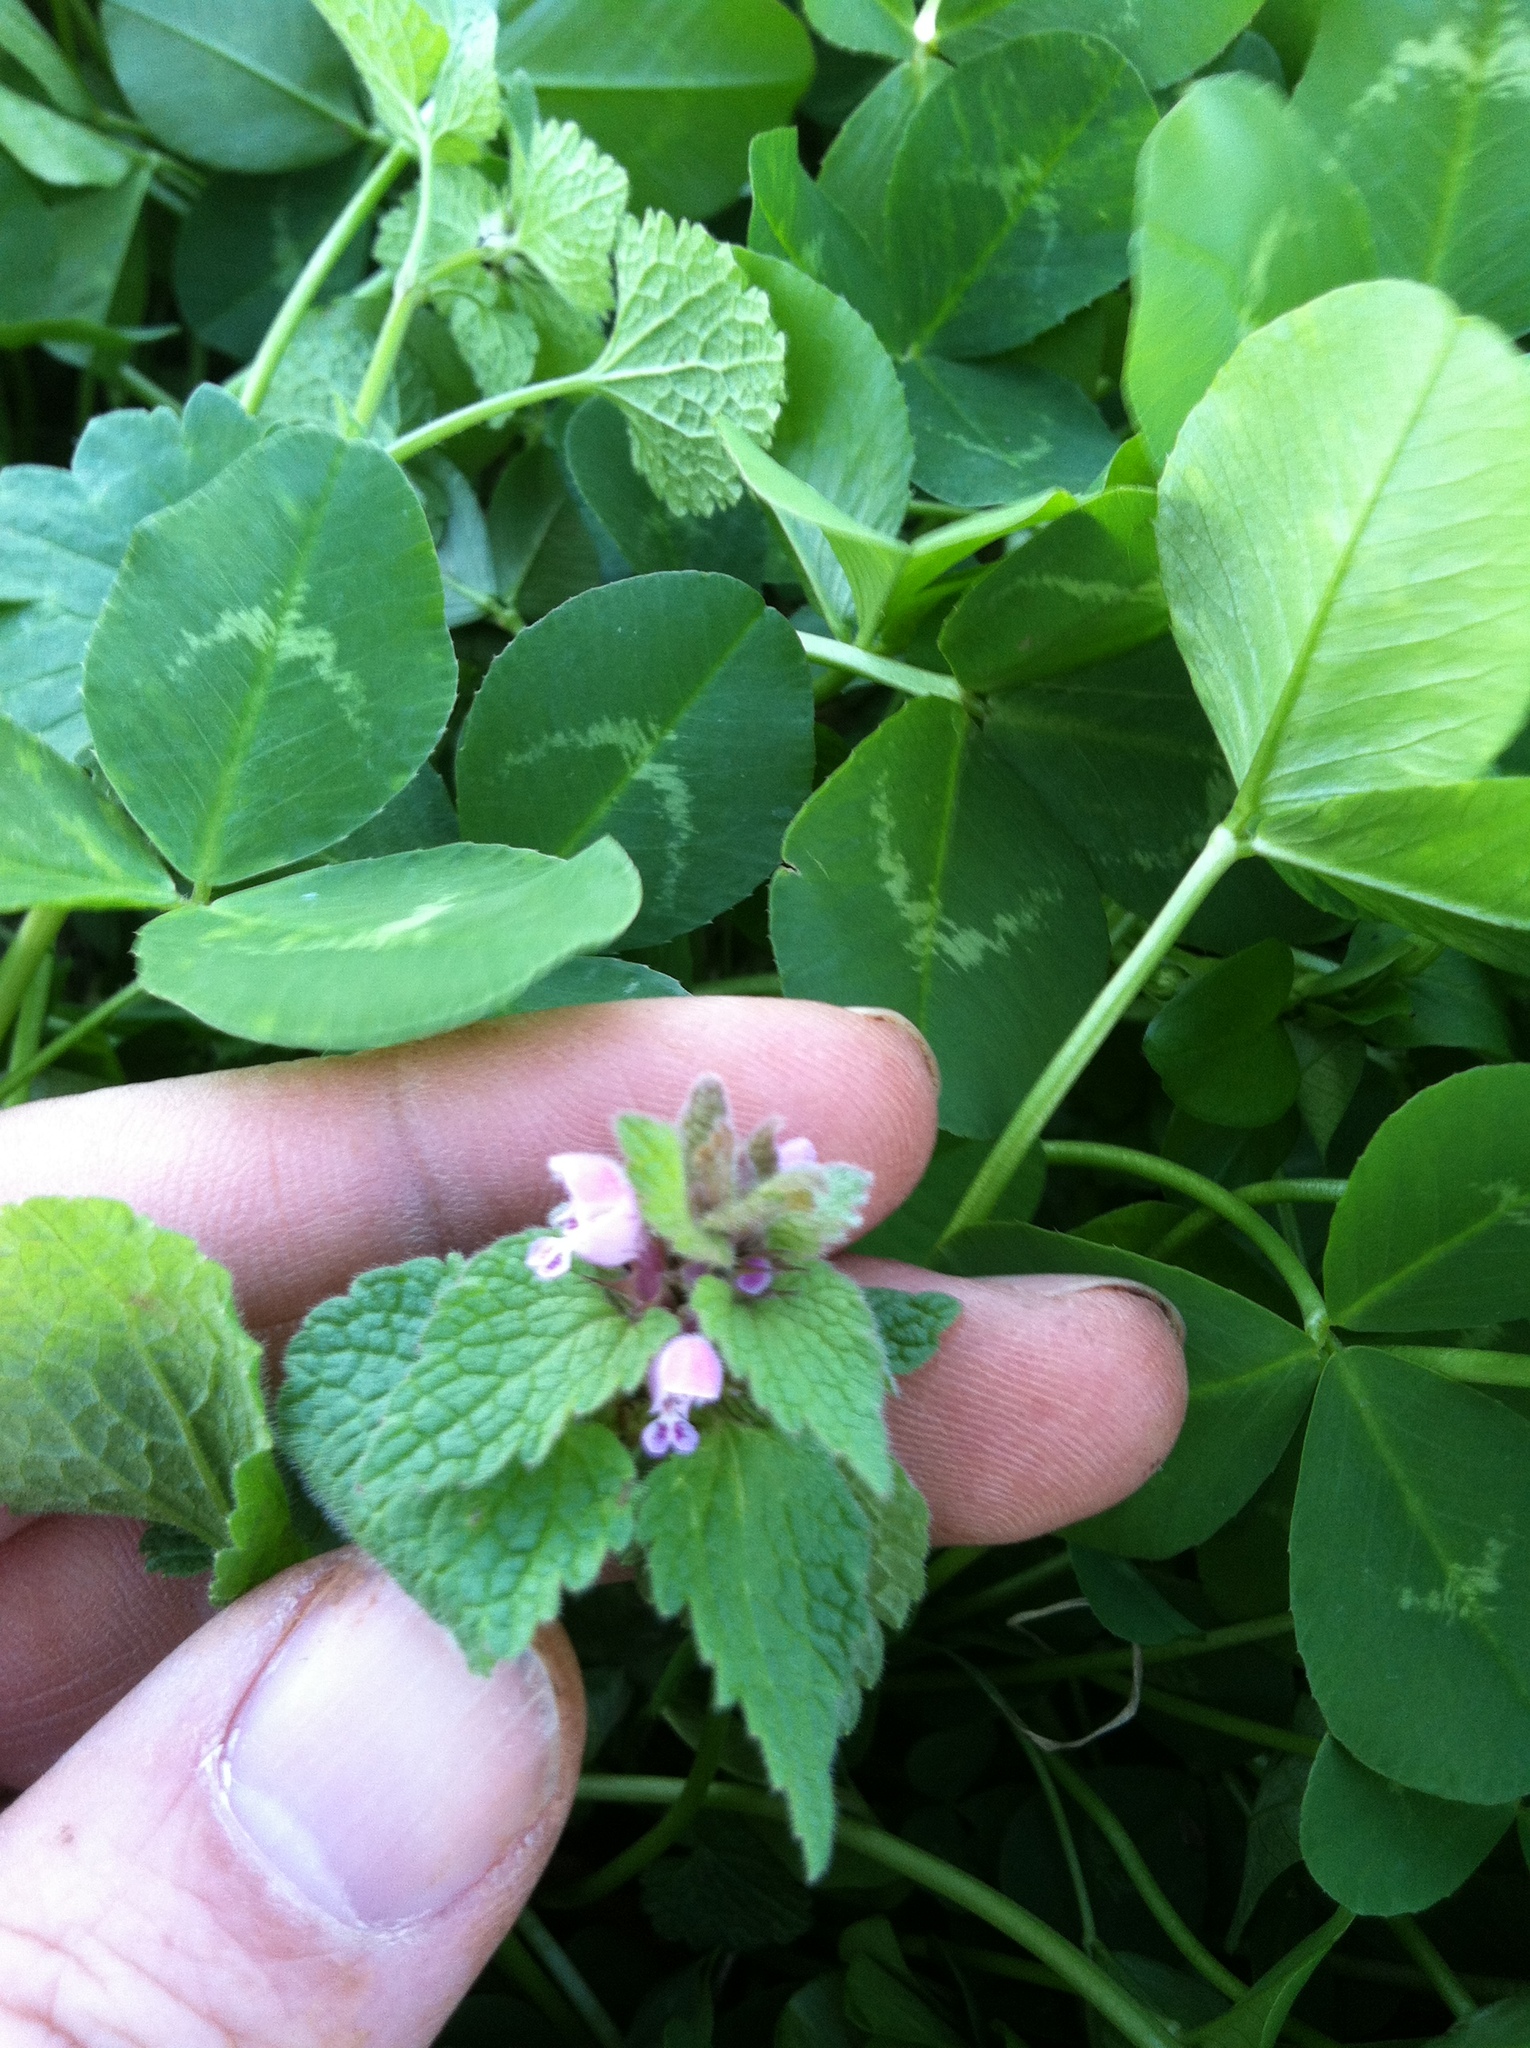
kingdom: Plantae
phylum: Tracheophyta
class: Magnoliopsida
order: Lamiales
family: Lamiaceae
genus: Lamium
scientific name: Lamium purpureum
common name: Red dead-nettle
